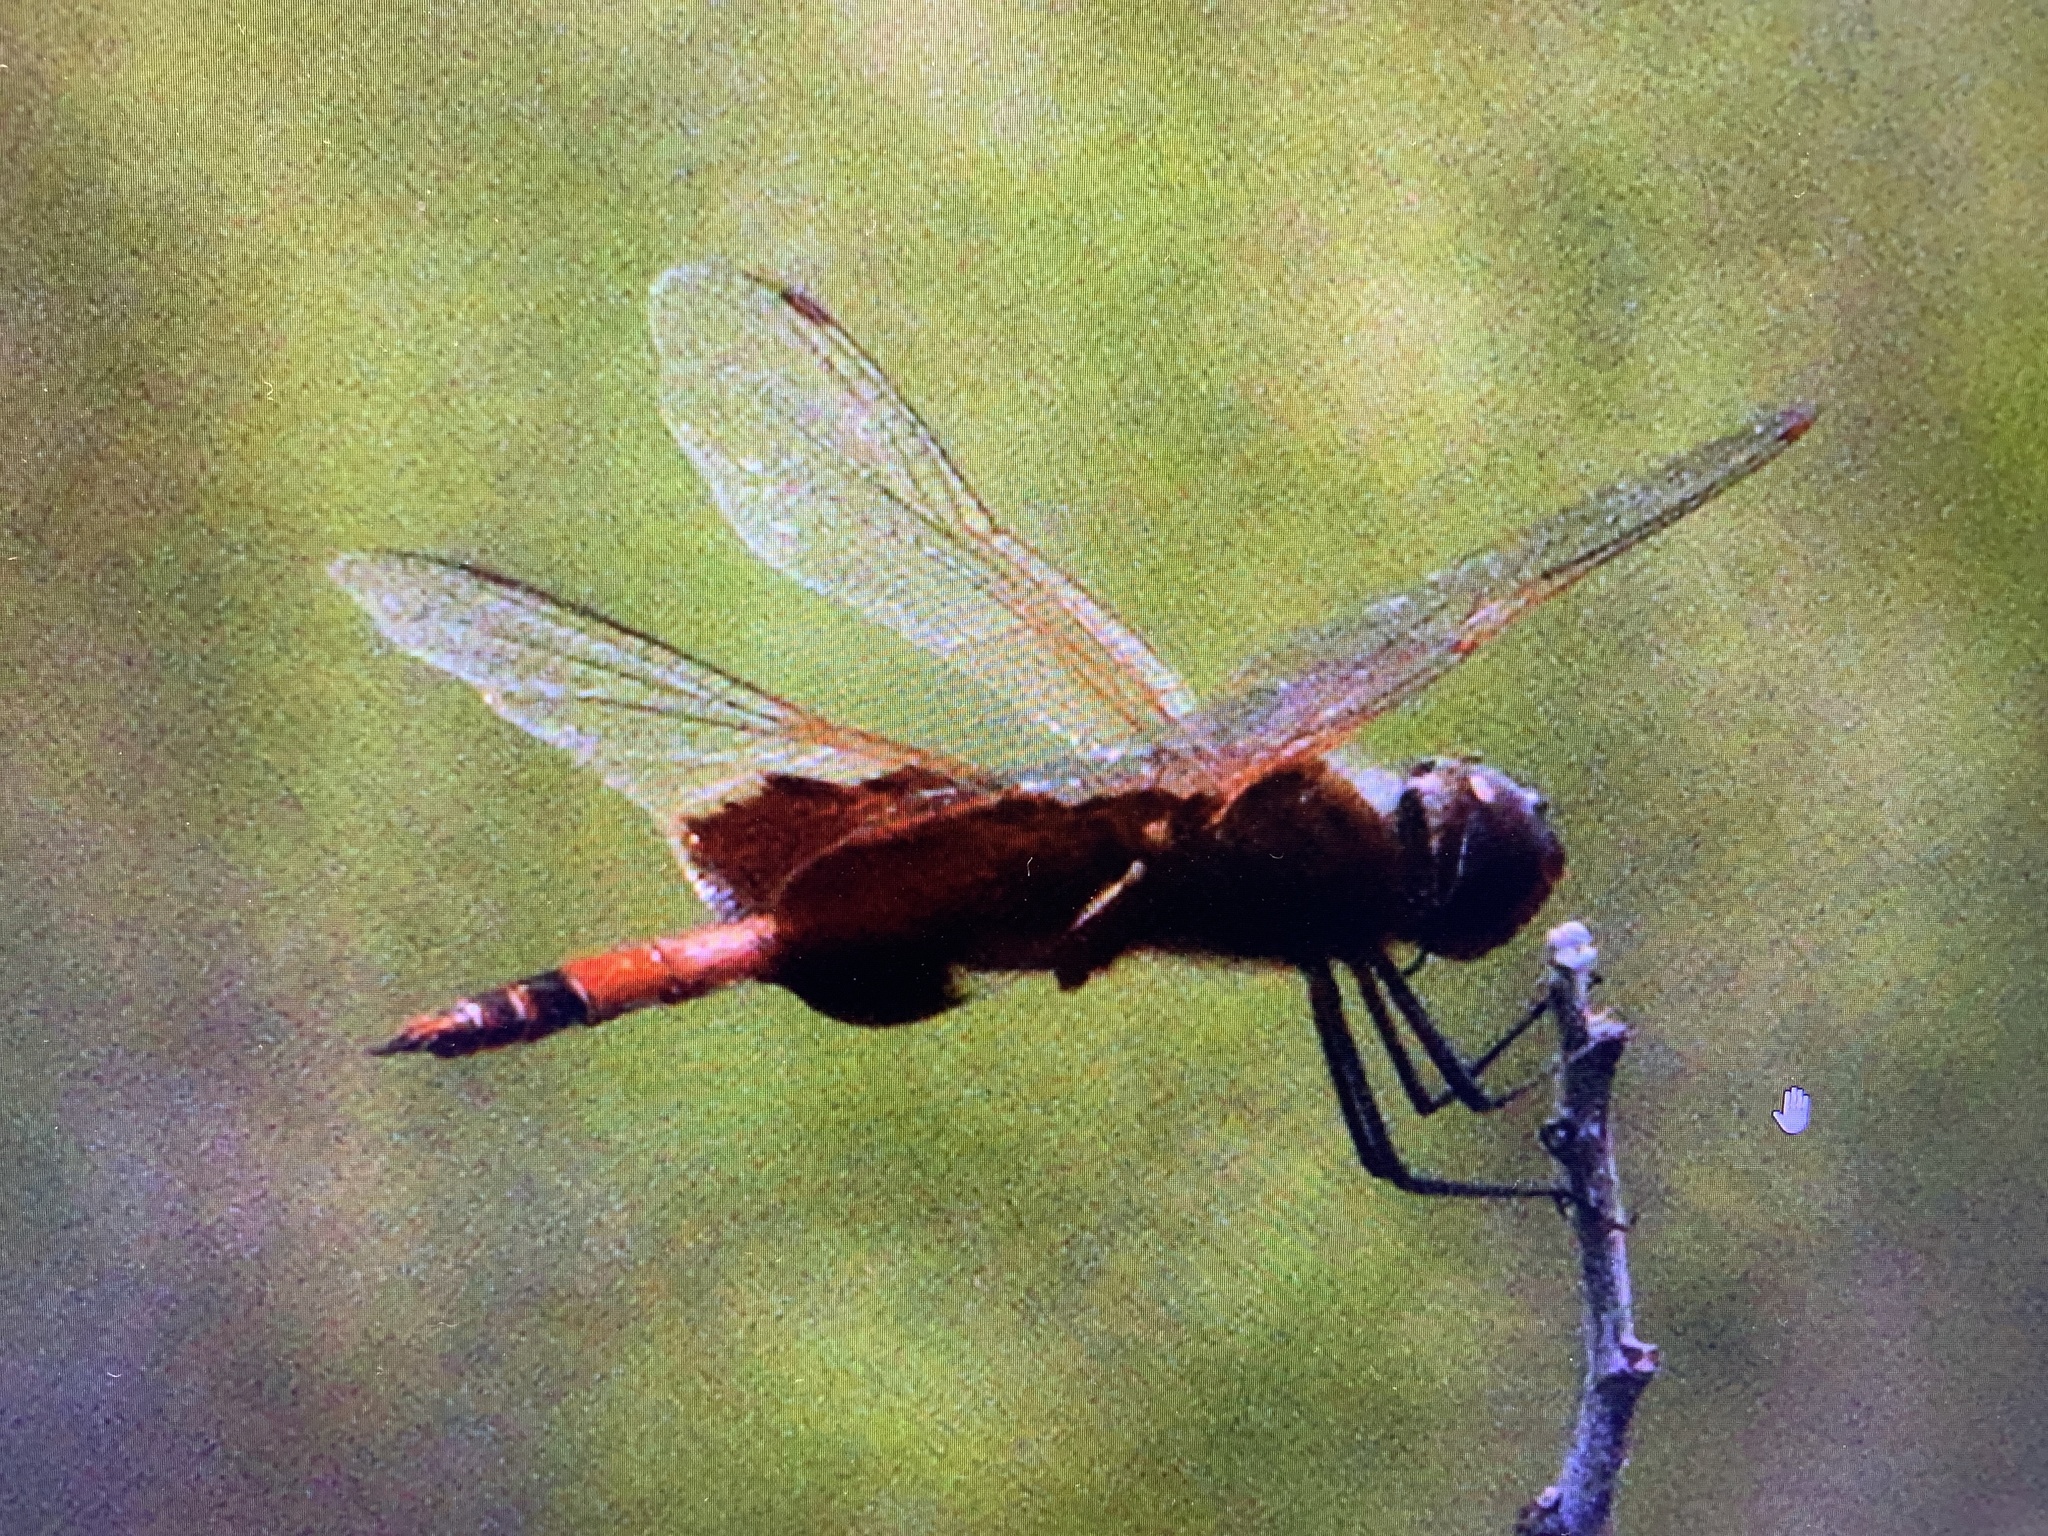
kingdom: Animalia
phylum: Arthropoda
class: Insecta
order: Odonata
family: Libellulidae
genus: Tramea
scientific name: Tramea carolina
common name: Carolina saddlebags
